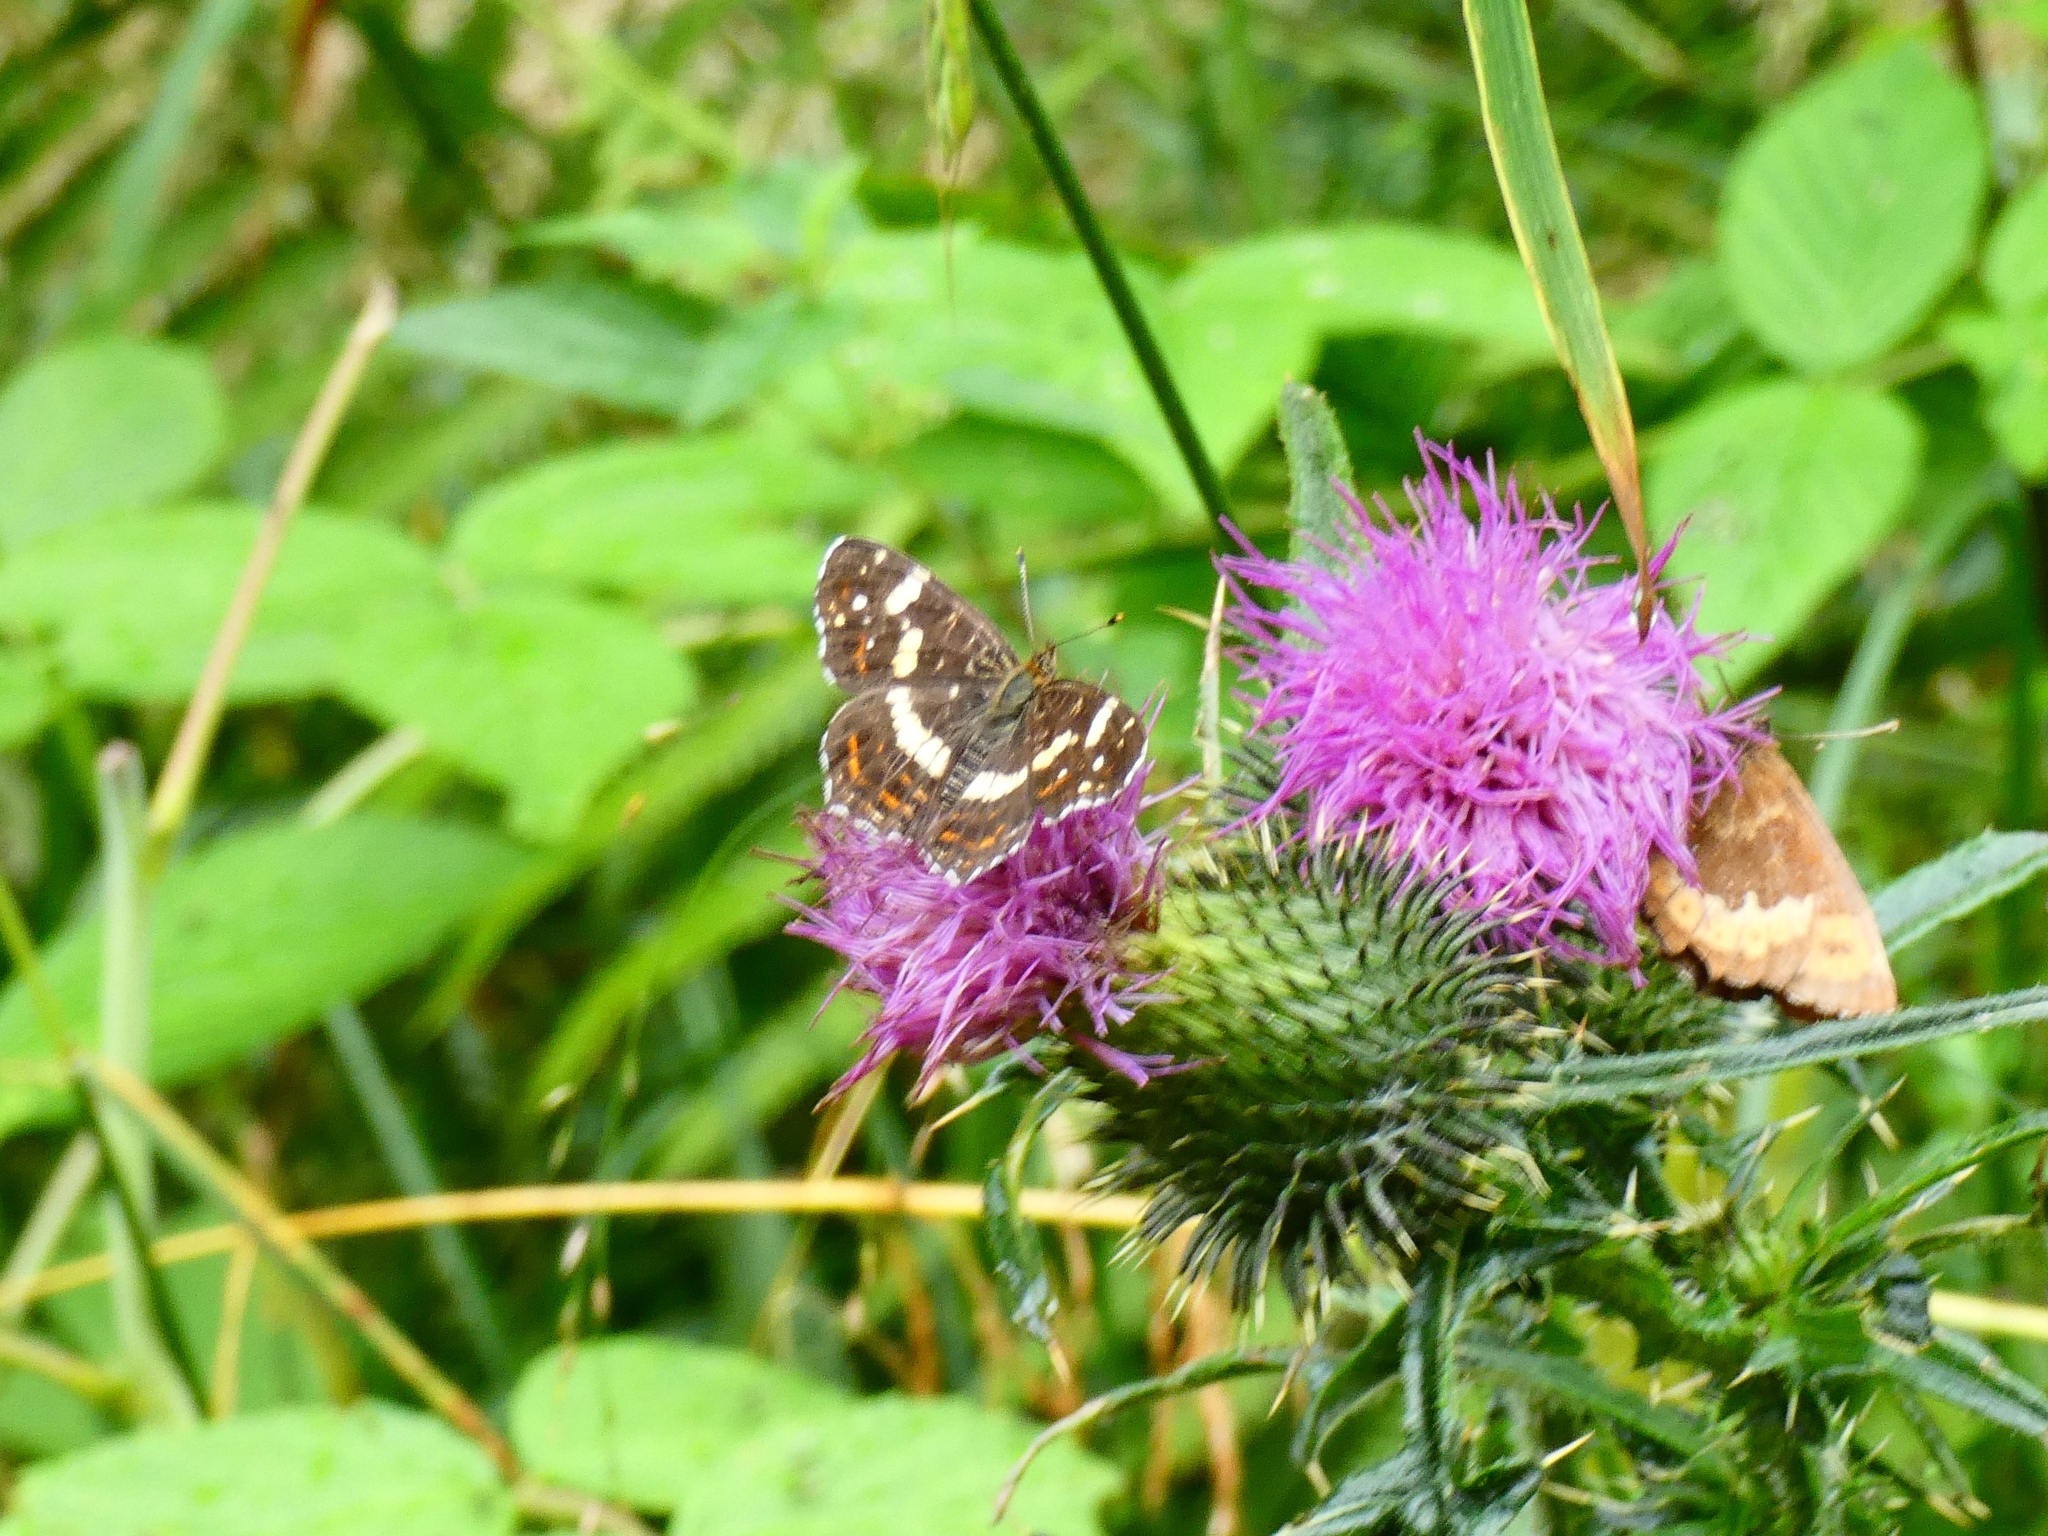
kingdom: Animalia
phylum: Arthropoda
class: Insecta
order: Lepidoptera
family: Nymphalidae
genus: Araschnia
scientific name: Araschnia levana
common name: Map butterfly
